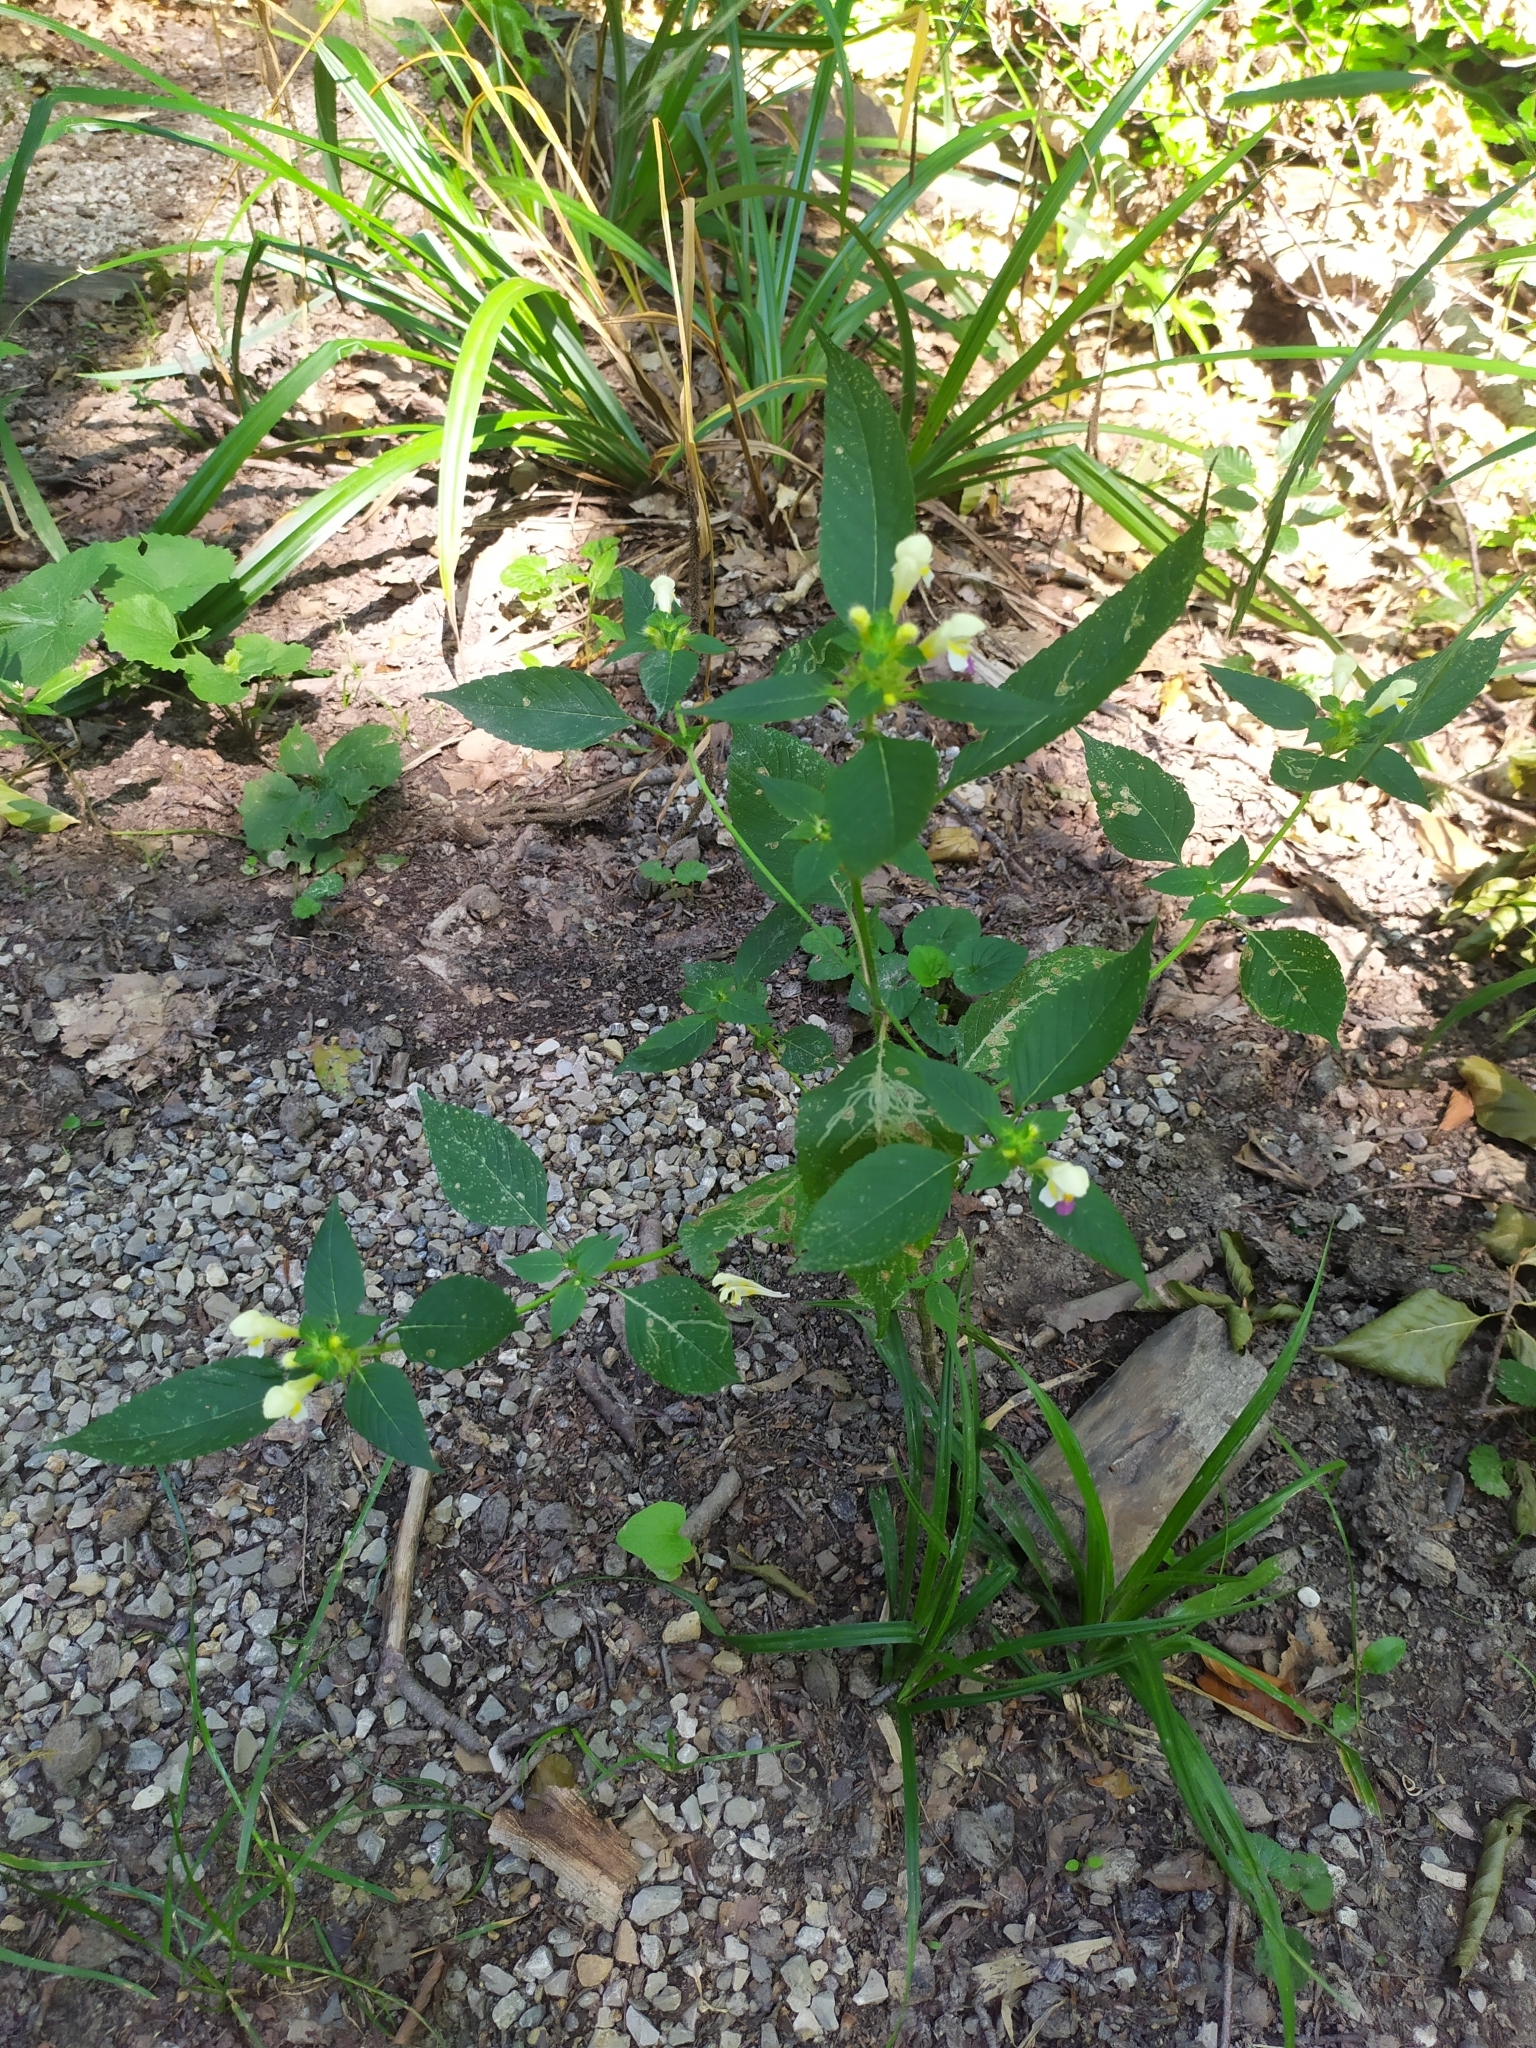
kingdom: Plantae
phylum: Tracheophyta
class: Magnoliopsida
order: Lamiales
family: Lamiaceae
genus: Galeopsis
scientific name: Galeopsis speciosa
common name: Large-flowered hemp-nettle
